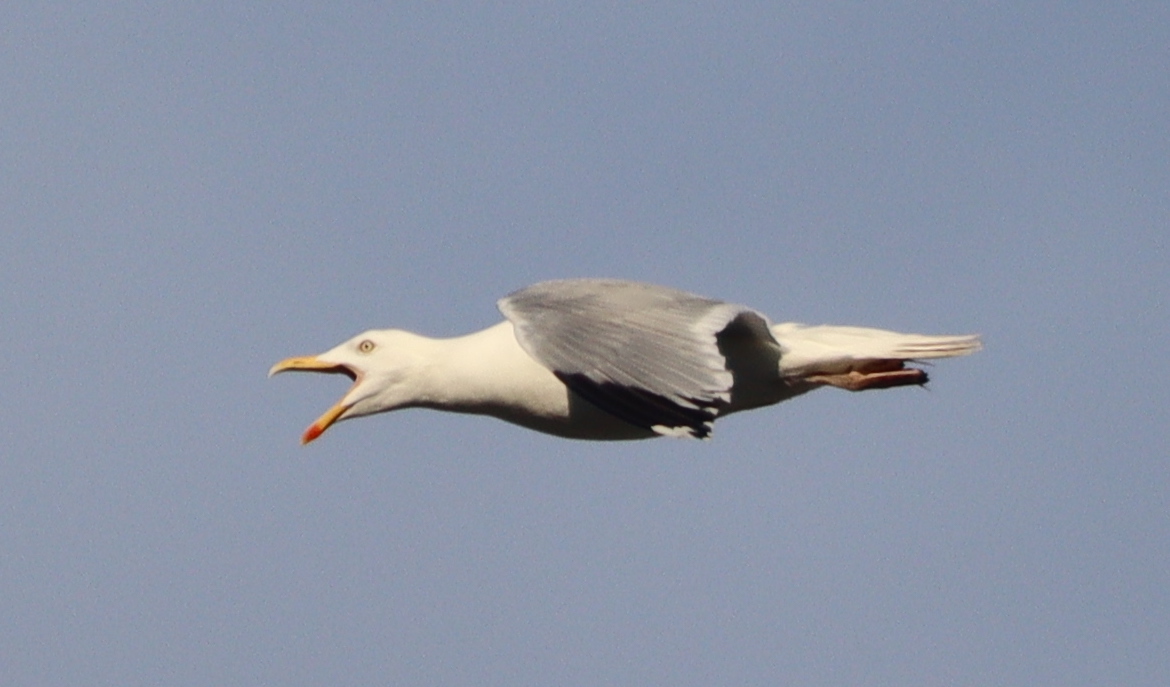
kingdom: Animalia
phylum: Chordata
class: Aves
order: Charadriiformes
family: Laridae
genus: Larus
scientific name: Larus argentatus
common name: Herring gull
